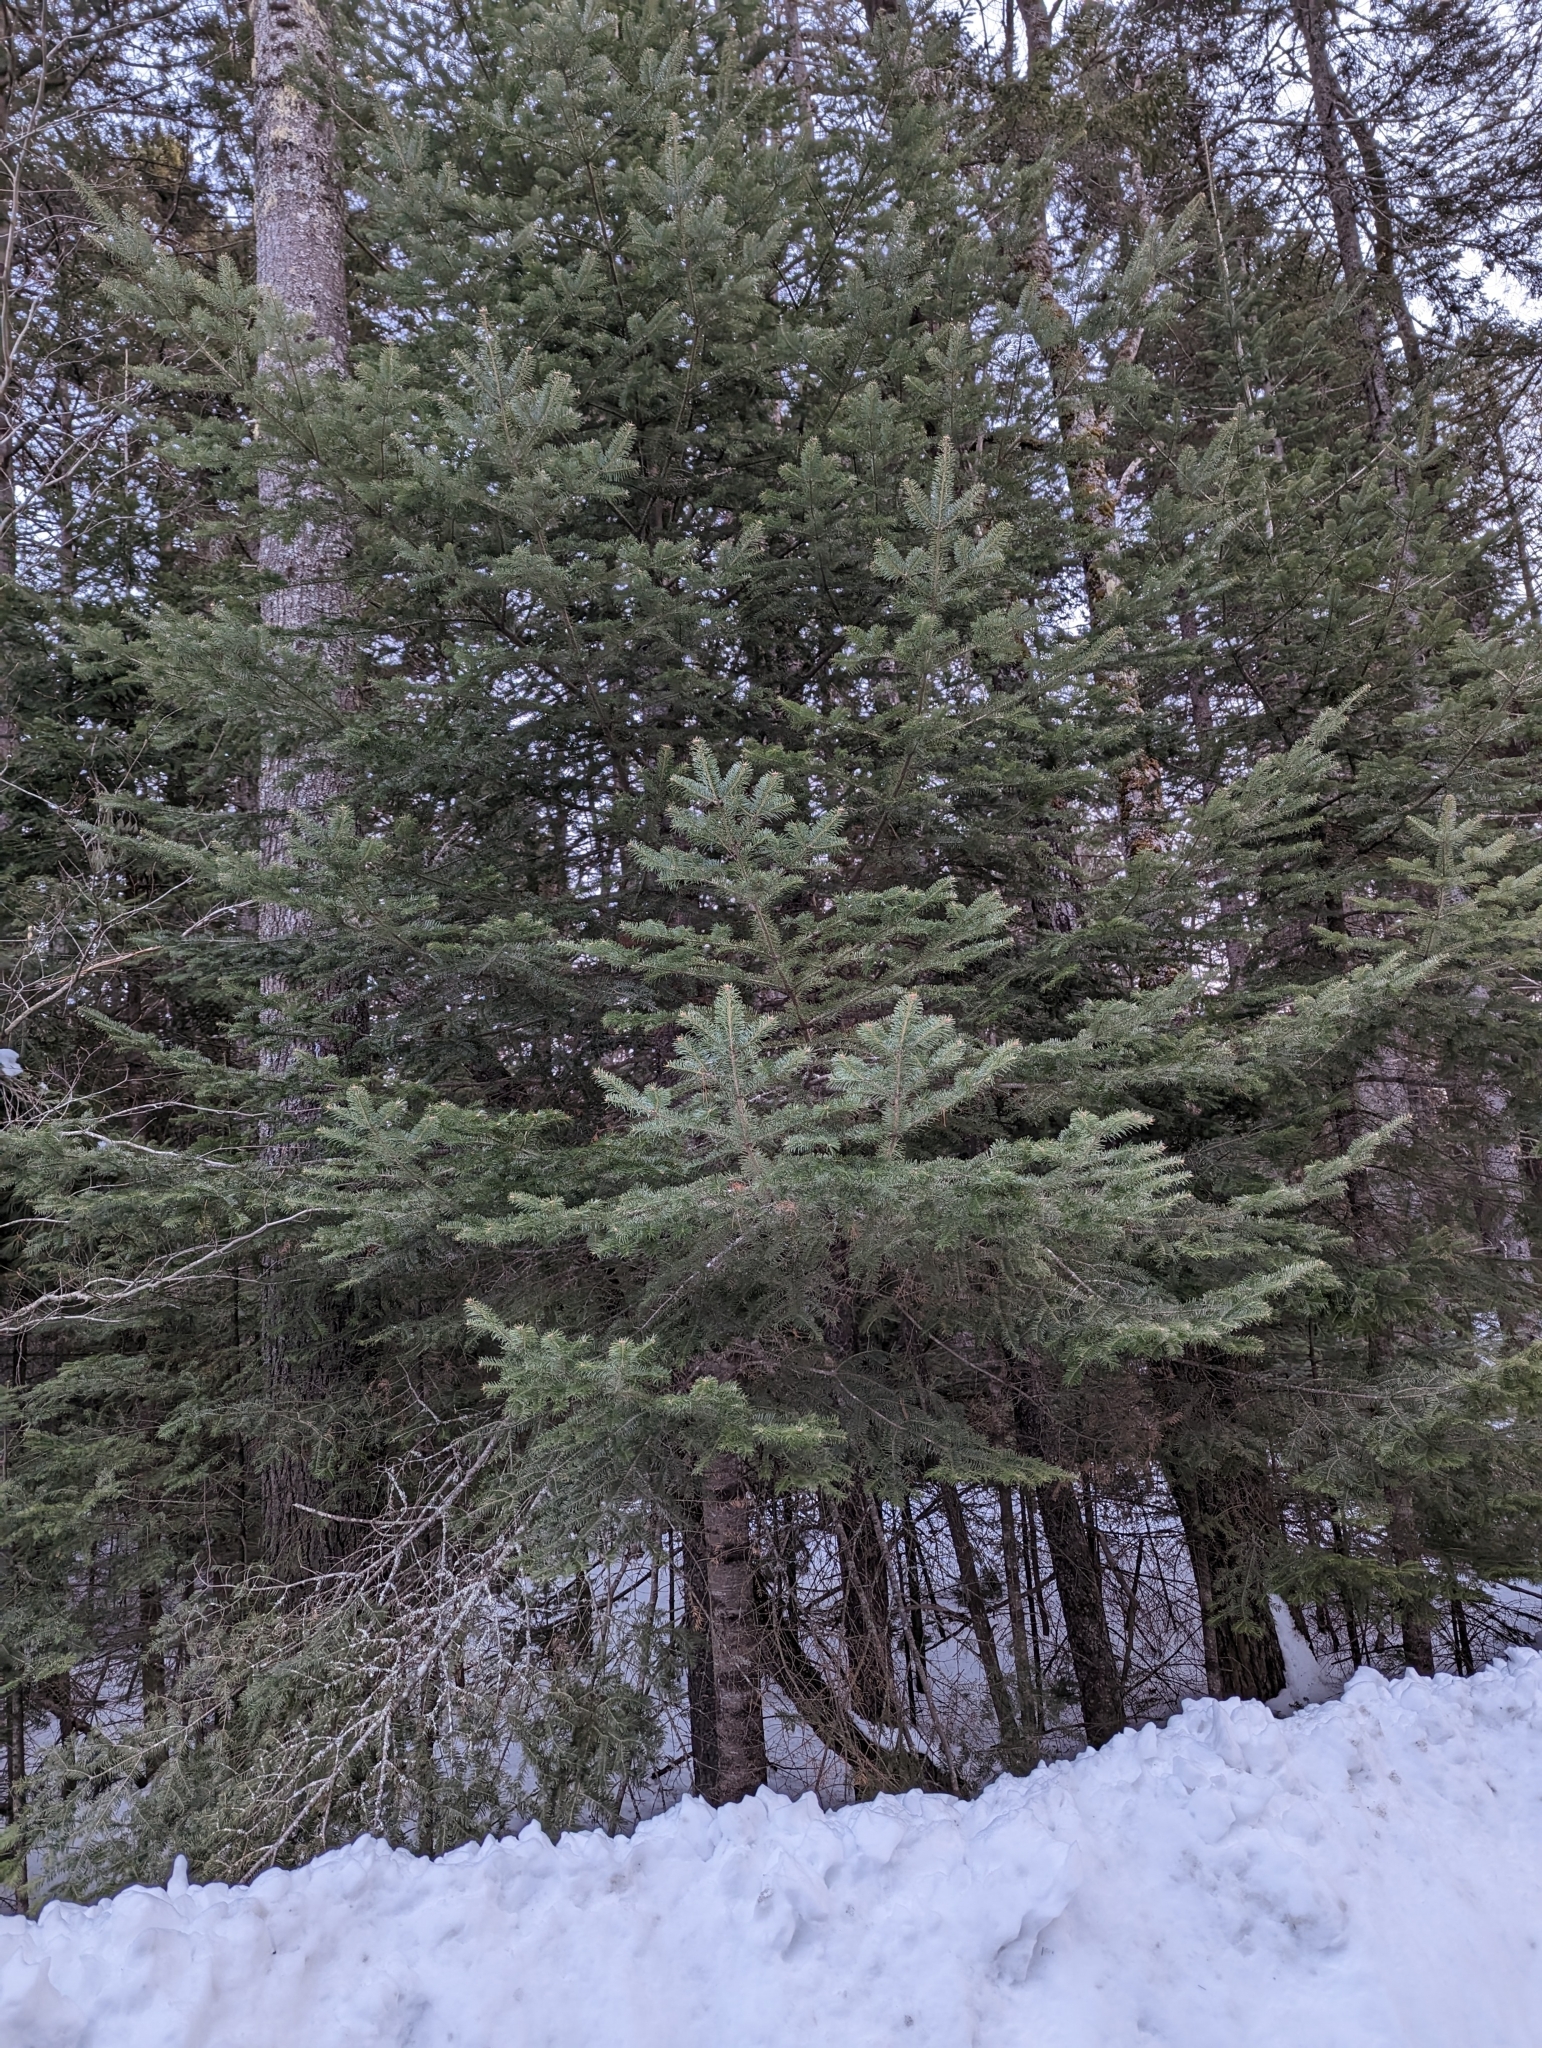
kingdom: Plantae
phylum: Tracheophyta
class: Pinopsida
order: Pinales
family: Pinaceae
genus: Abies
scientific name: Abies balsamea
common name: Balsam fir
